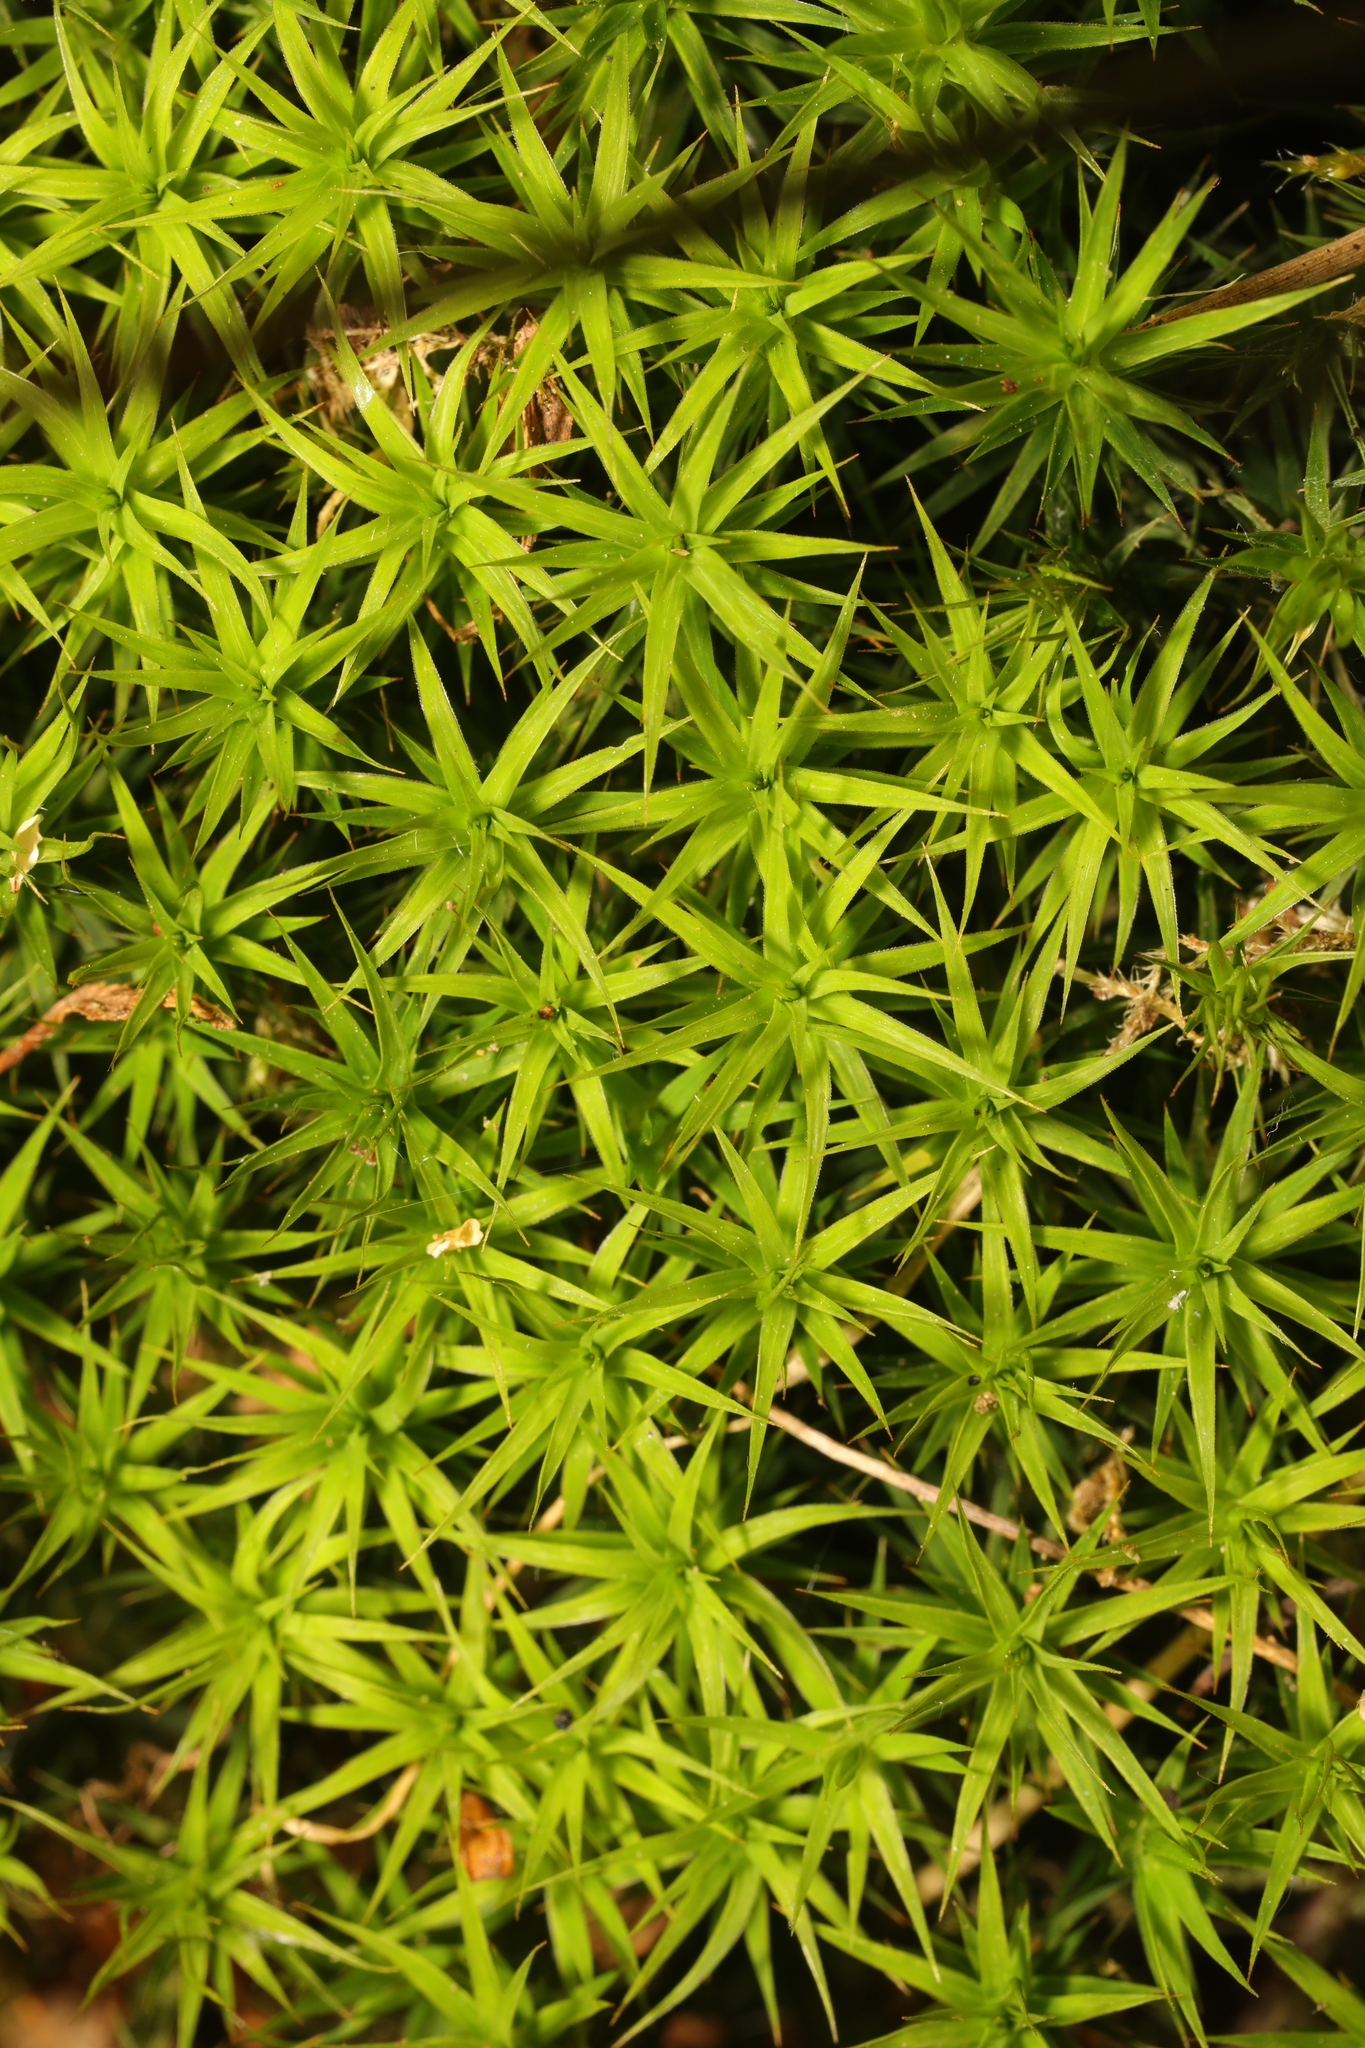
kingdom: Plantae
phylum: Bryophyta
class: Polytrichopsida
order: Polytrichales
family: Polytrichaceae
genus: Polytrichum
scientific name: Polytrichum formosum
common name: Bank haircap moss
